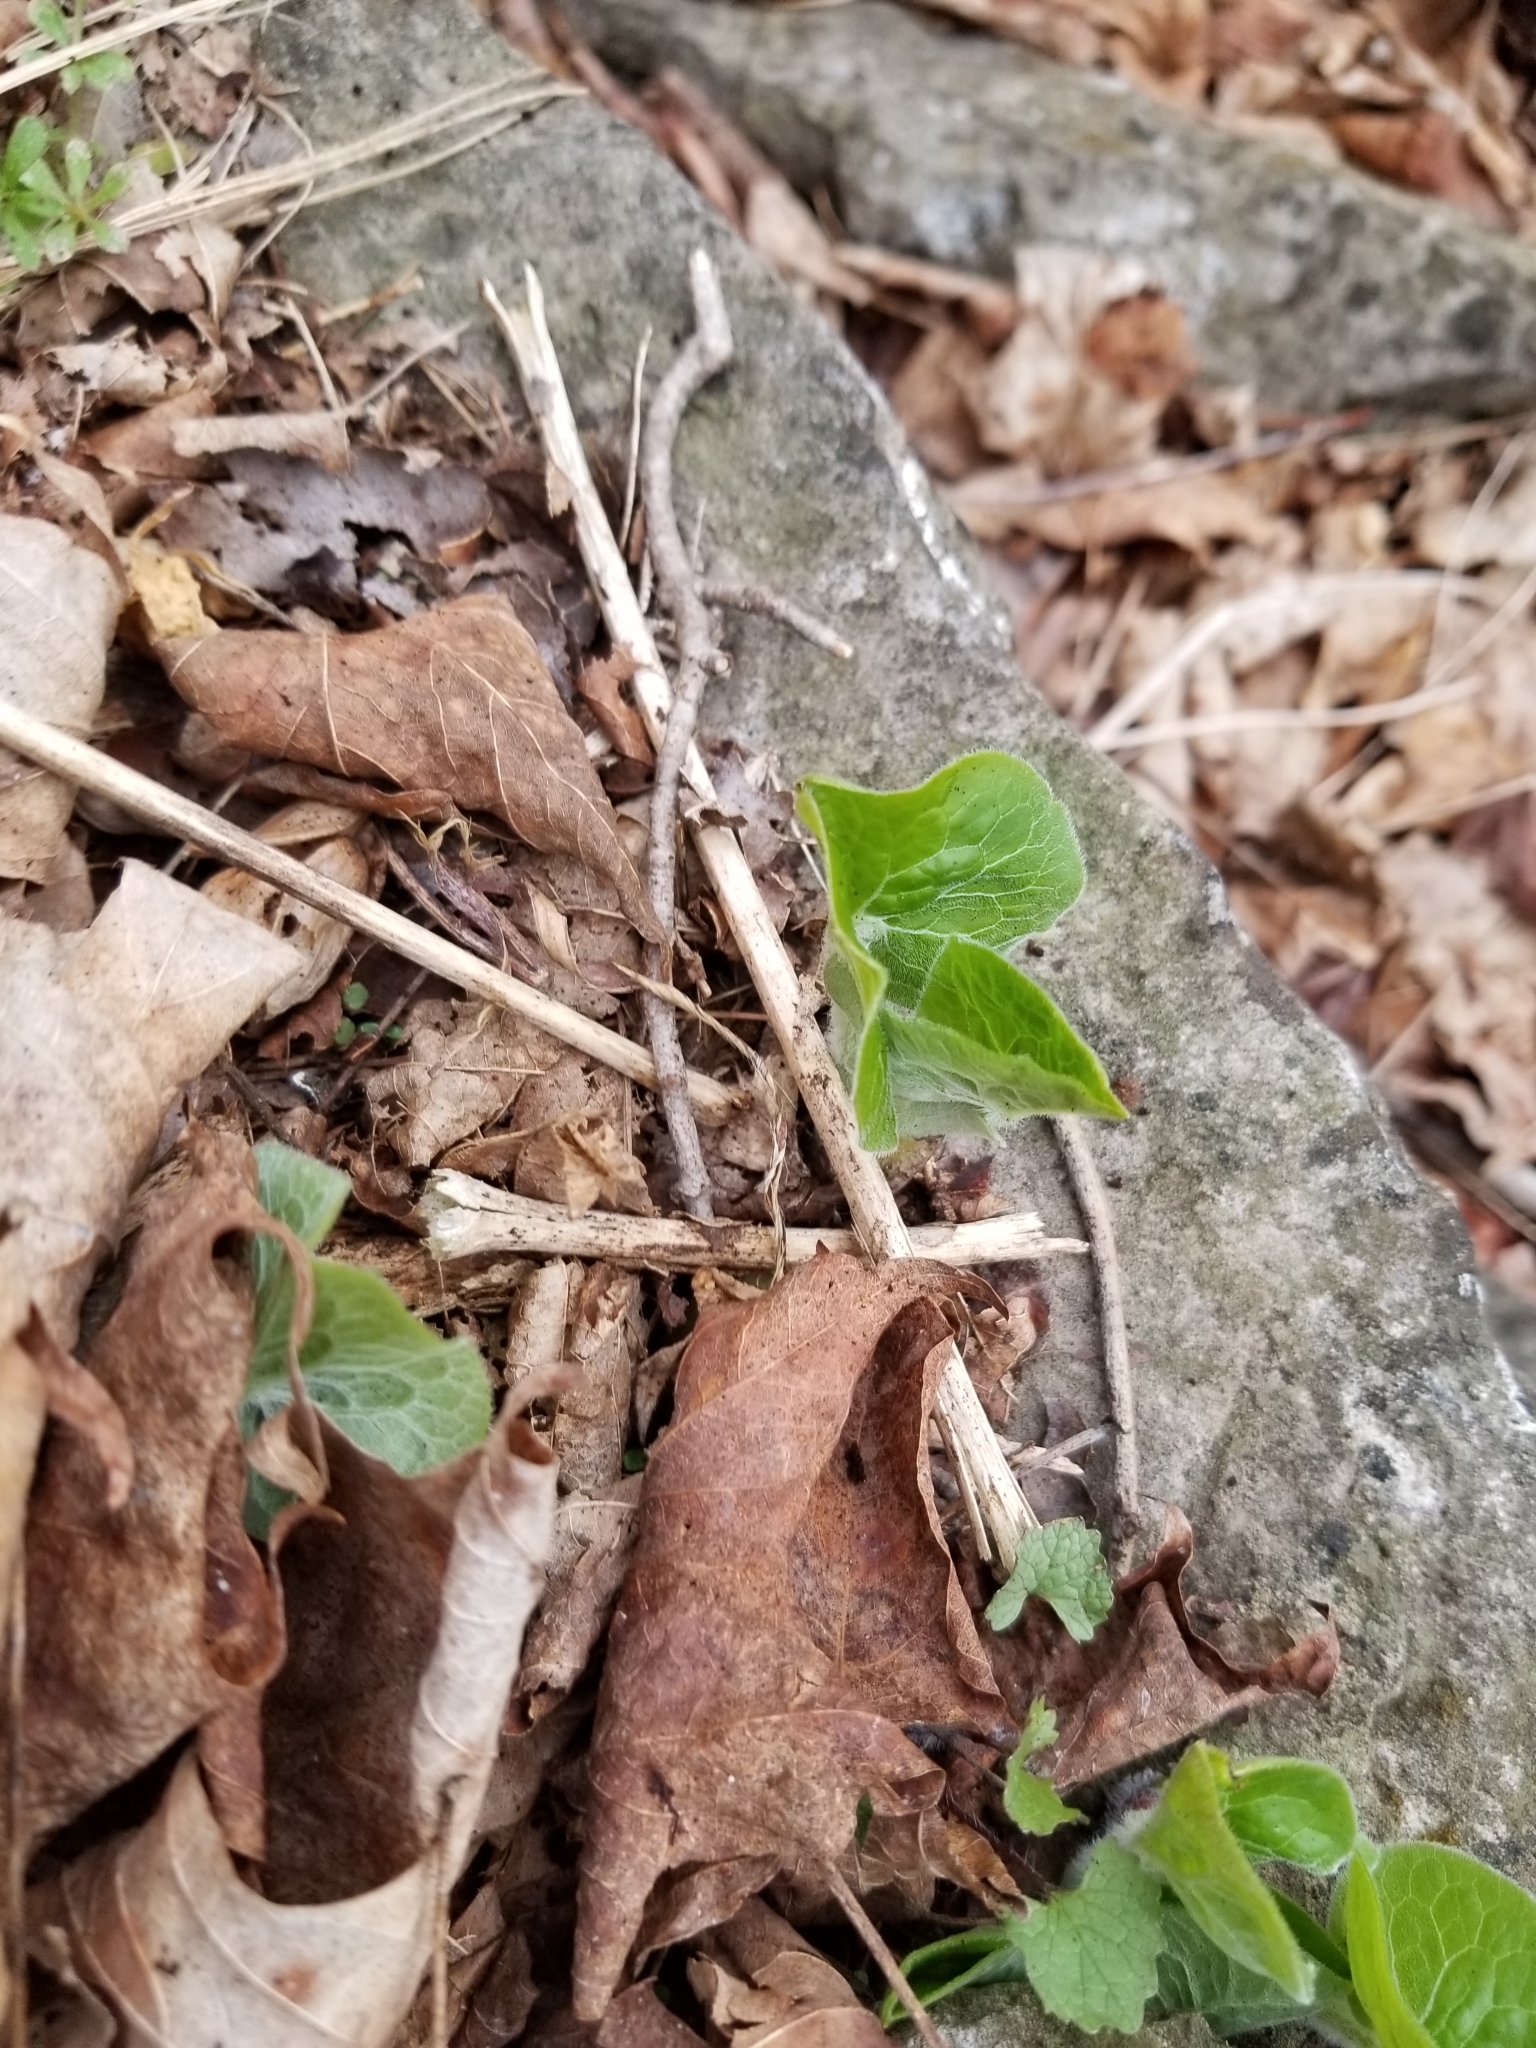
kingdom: Plantae
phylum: Tracheophyta
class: Magnoliopsida
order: Piperales
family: Aristolochiaceae
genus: Asarum
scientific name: Asarum canadense
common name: Wild ginger
